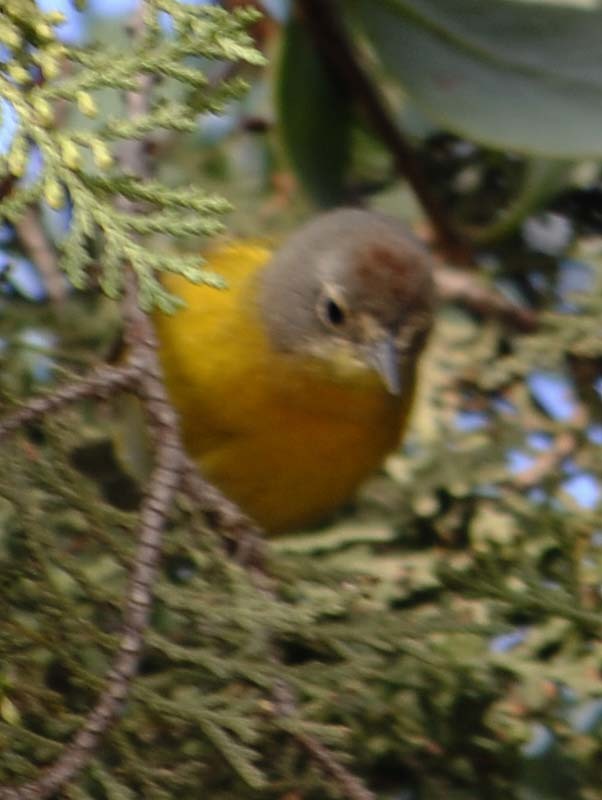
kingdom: Animalia
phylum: Chordata
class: Aves
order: Passeriformes
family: Parulidae
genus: Leiothlypis
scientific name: Leiothlypis ruficapilla
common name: Nashville warbler
